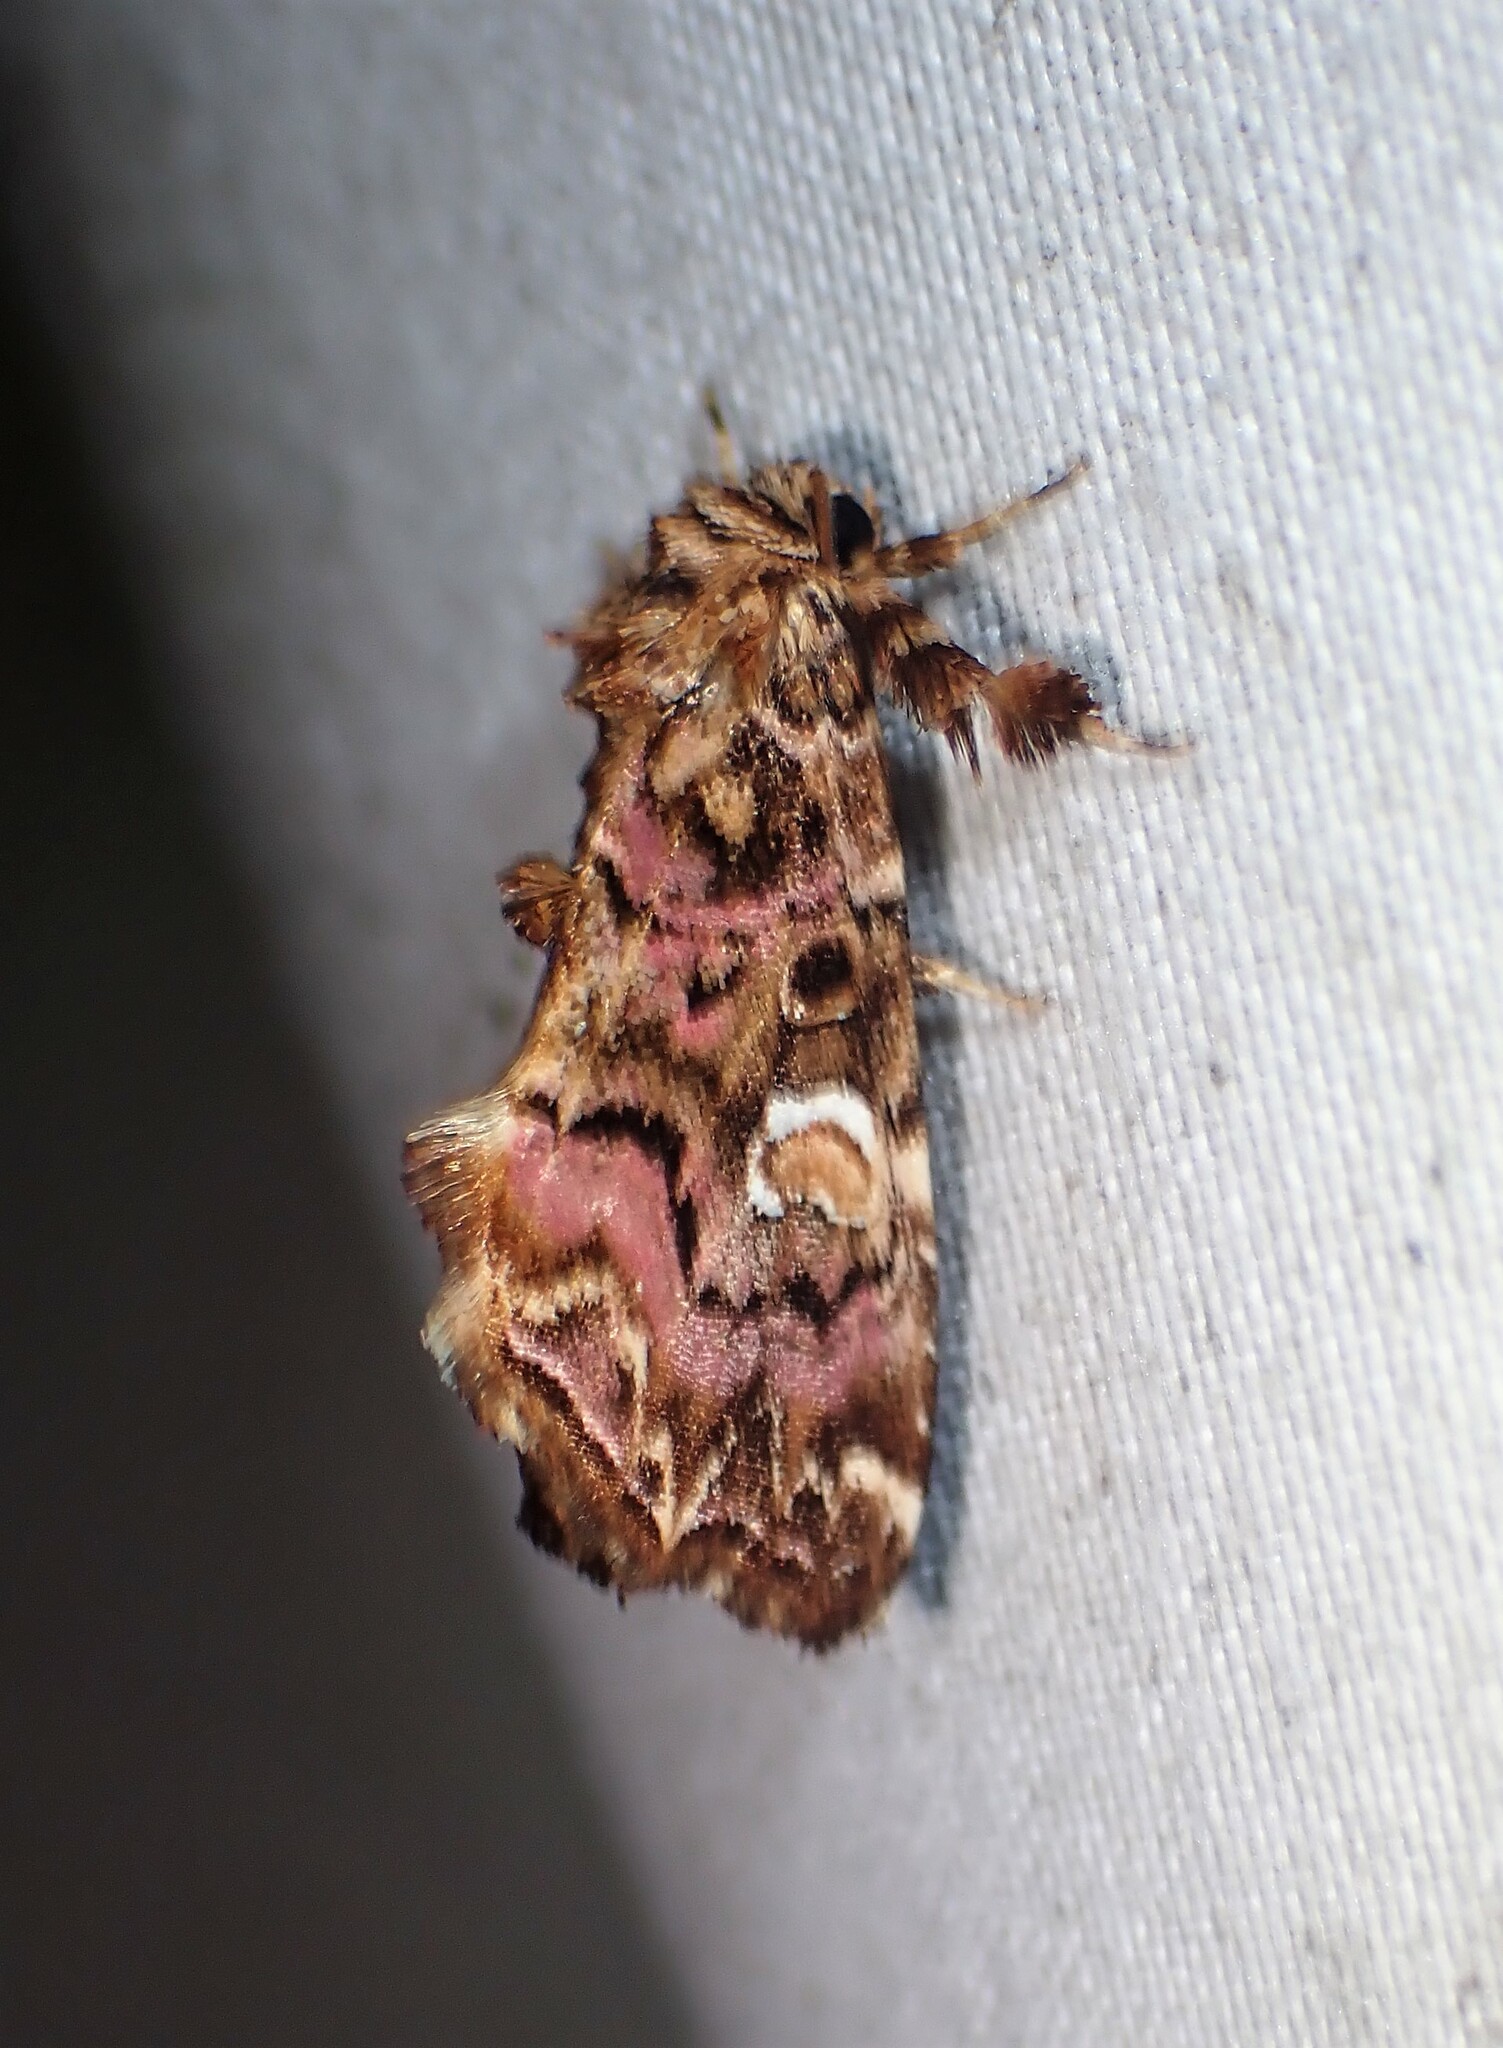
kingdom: Animalia
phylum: Arthropoda
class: Insecta
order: Lepidoptera
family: Noctuidae
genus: Callopistria
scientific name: Callopistria mollissima
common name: Pink-shaded fern moth
